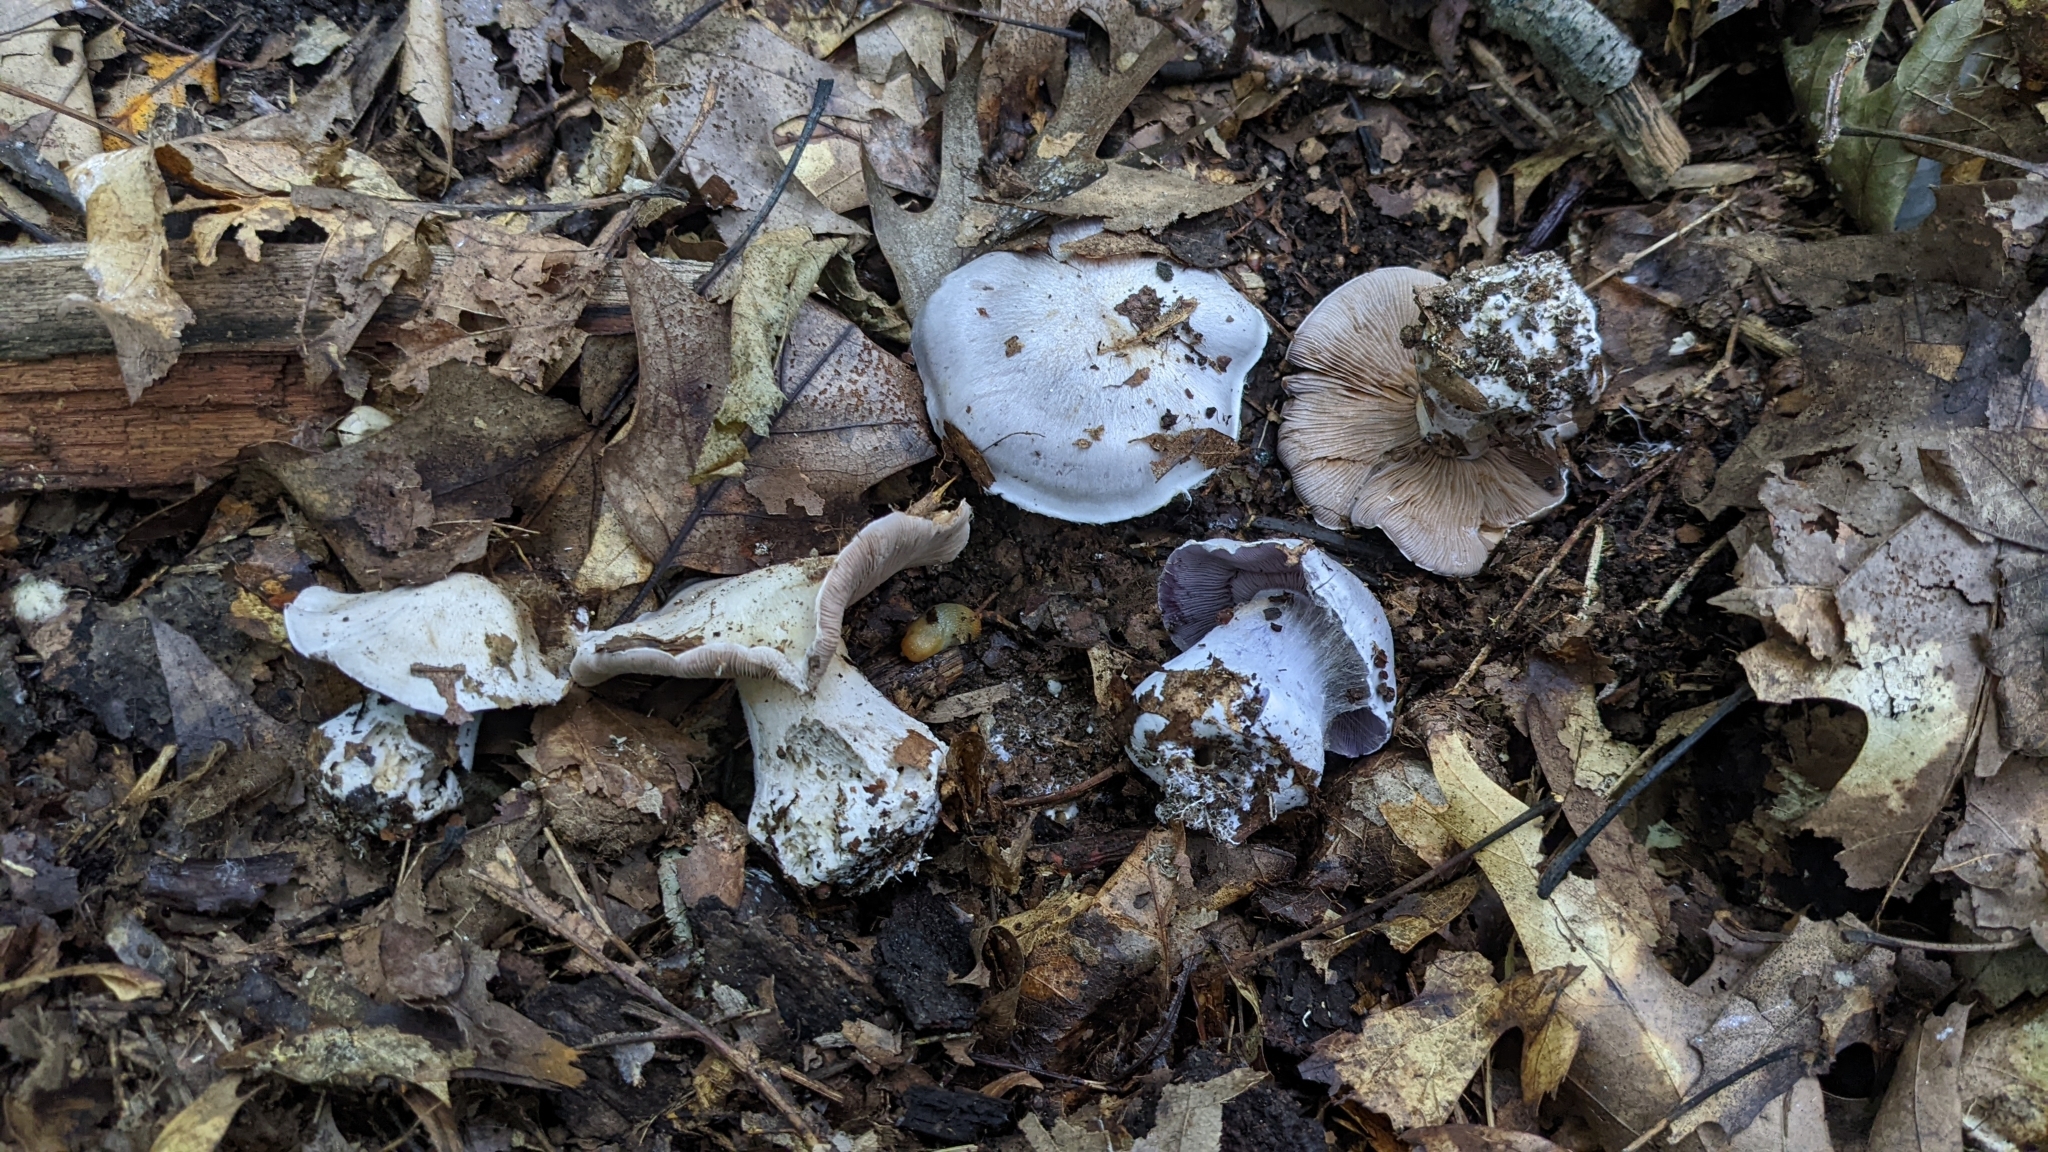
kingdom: Fungi
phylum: Basidiomycota
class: Agaricomycetes
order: Agaricales
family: Cortinariaceae
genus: Cortinarius
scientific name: Cortinarius obliquus
